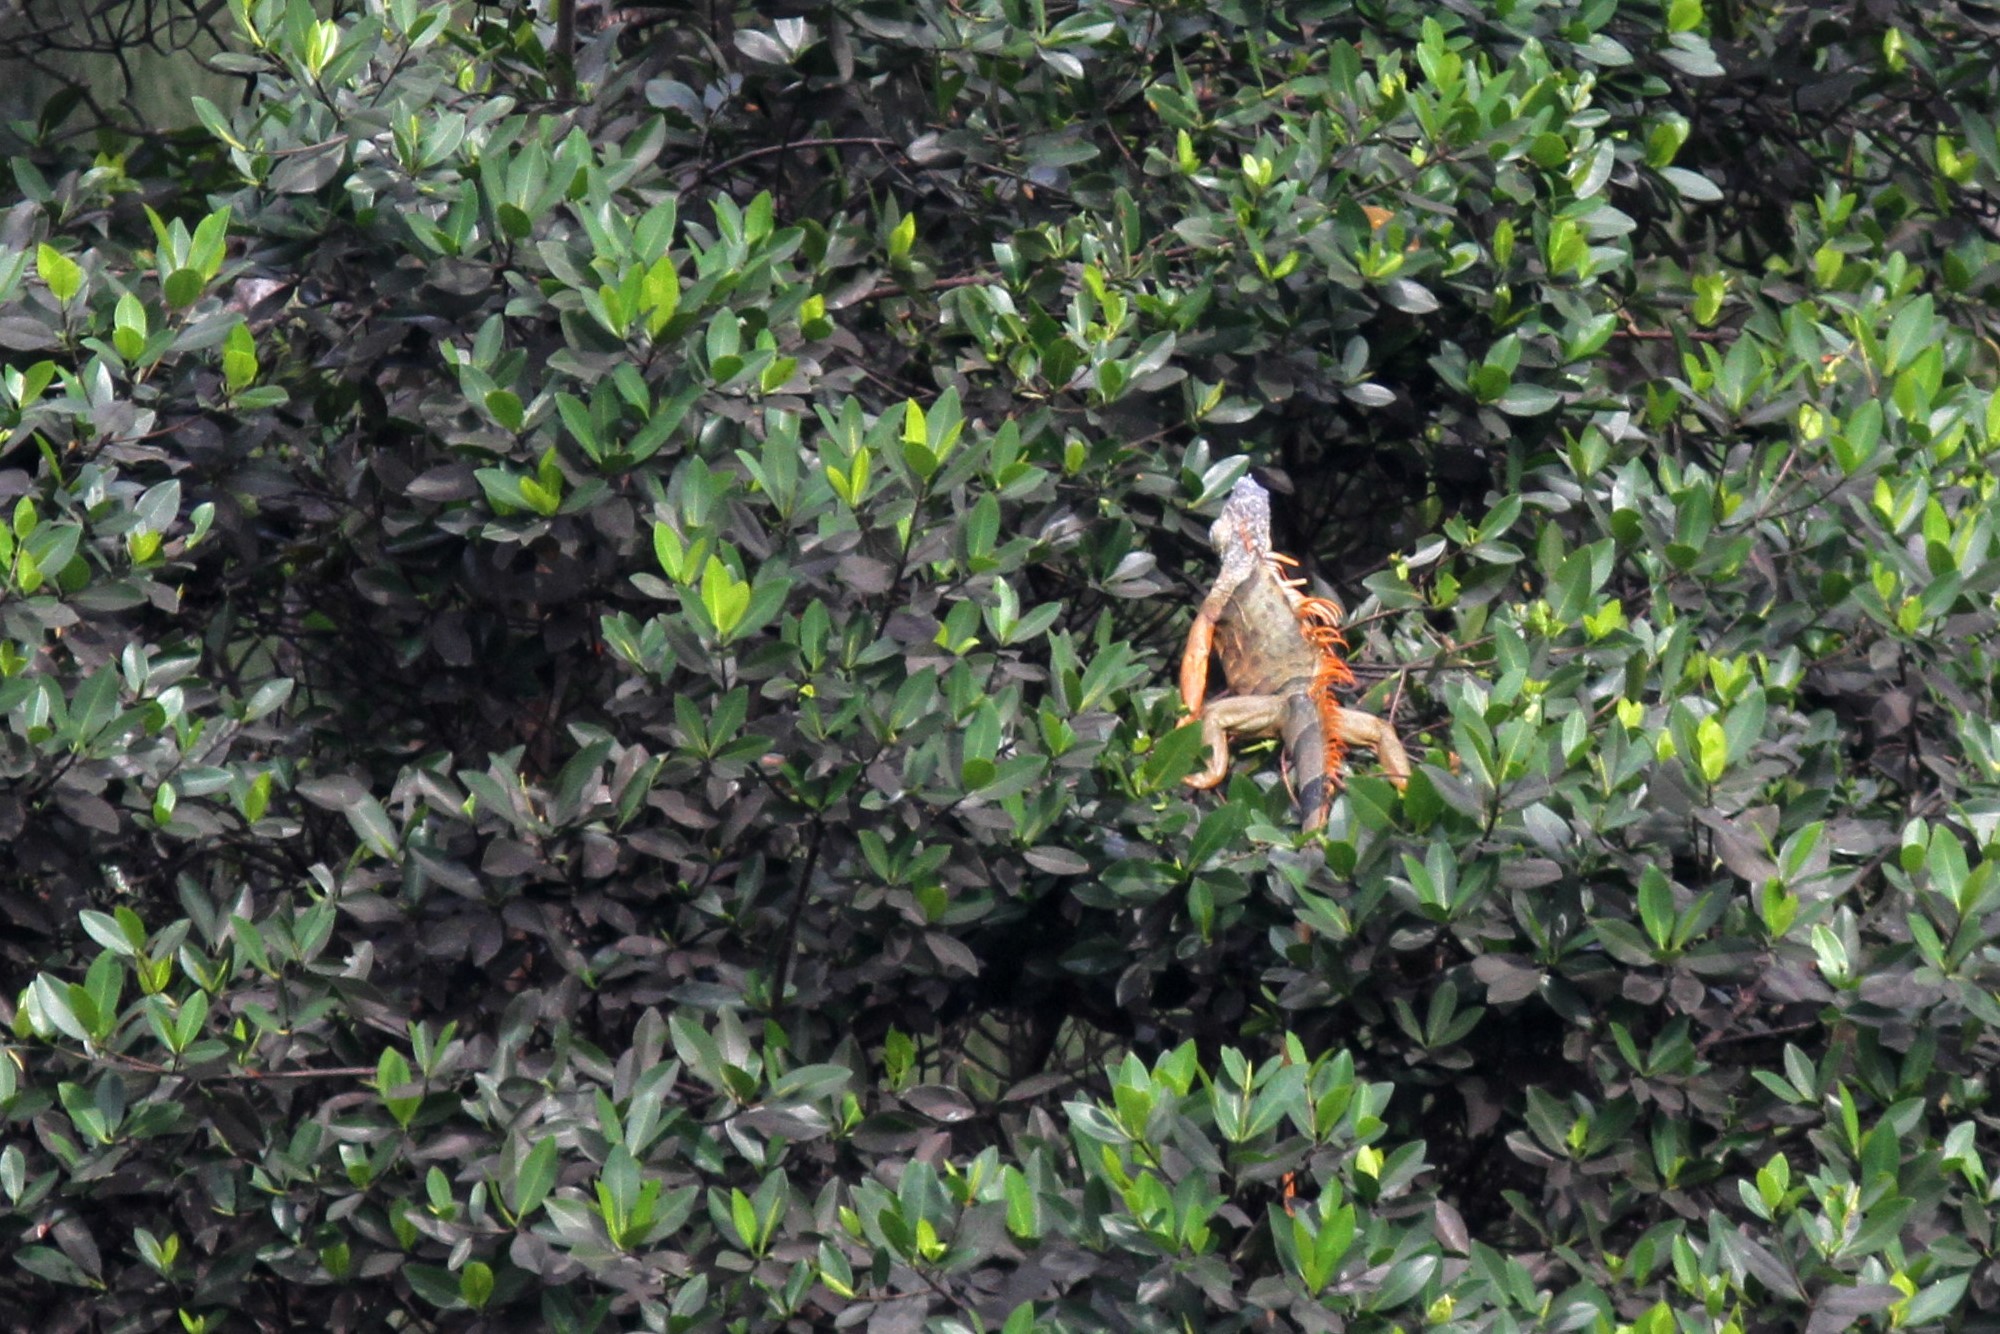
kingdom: Animalia
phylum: Chordata
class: Squamata
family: Iguanidae
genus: Iguana
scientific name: Iguana iguana
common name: Green iguana
